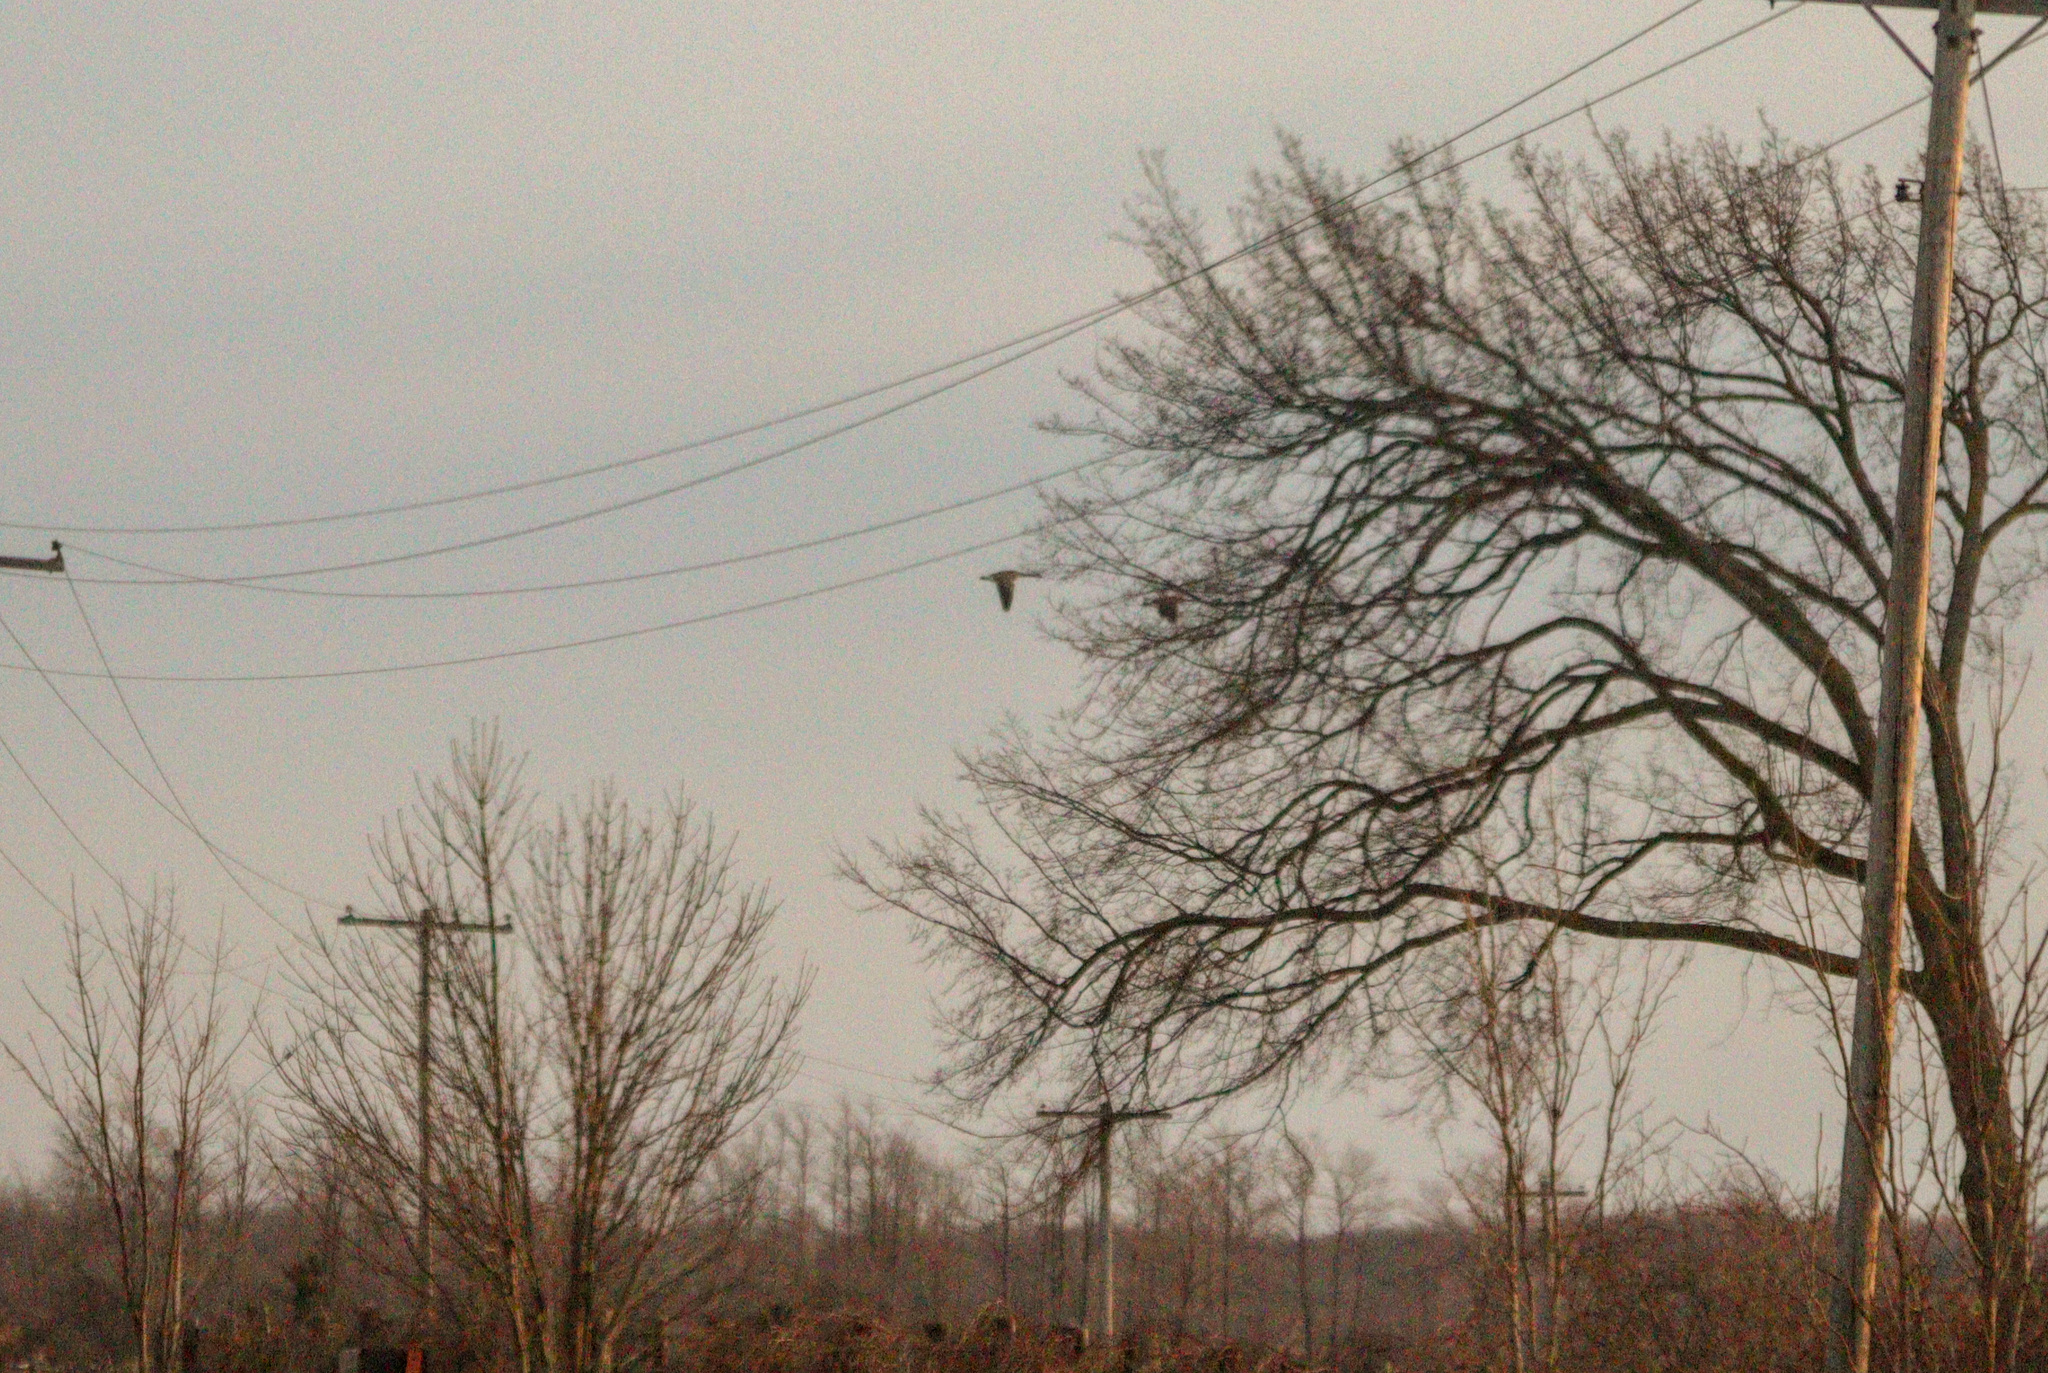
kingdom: Animalia
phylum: Chordata
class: Aves
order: Anseriformes
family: Anatidae
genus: Branta
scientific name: Branta canadensis
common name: Canada goose
